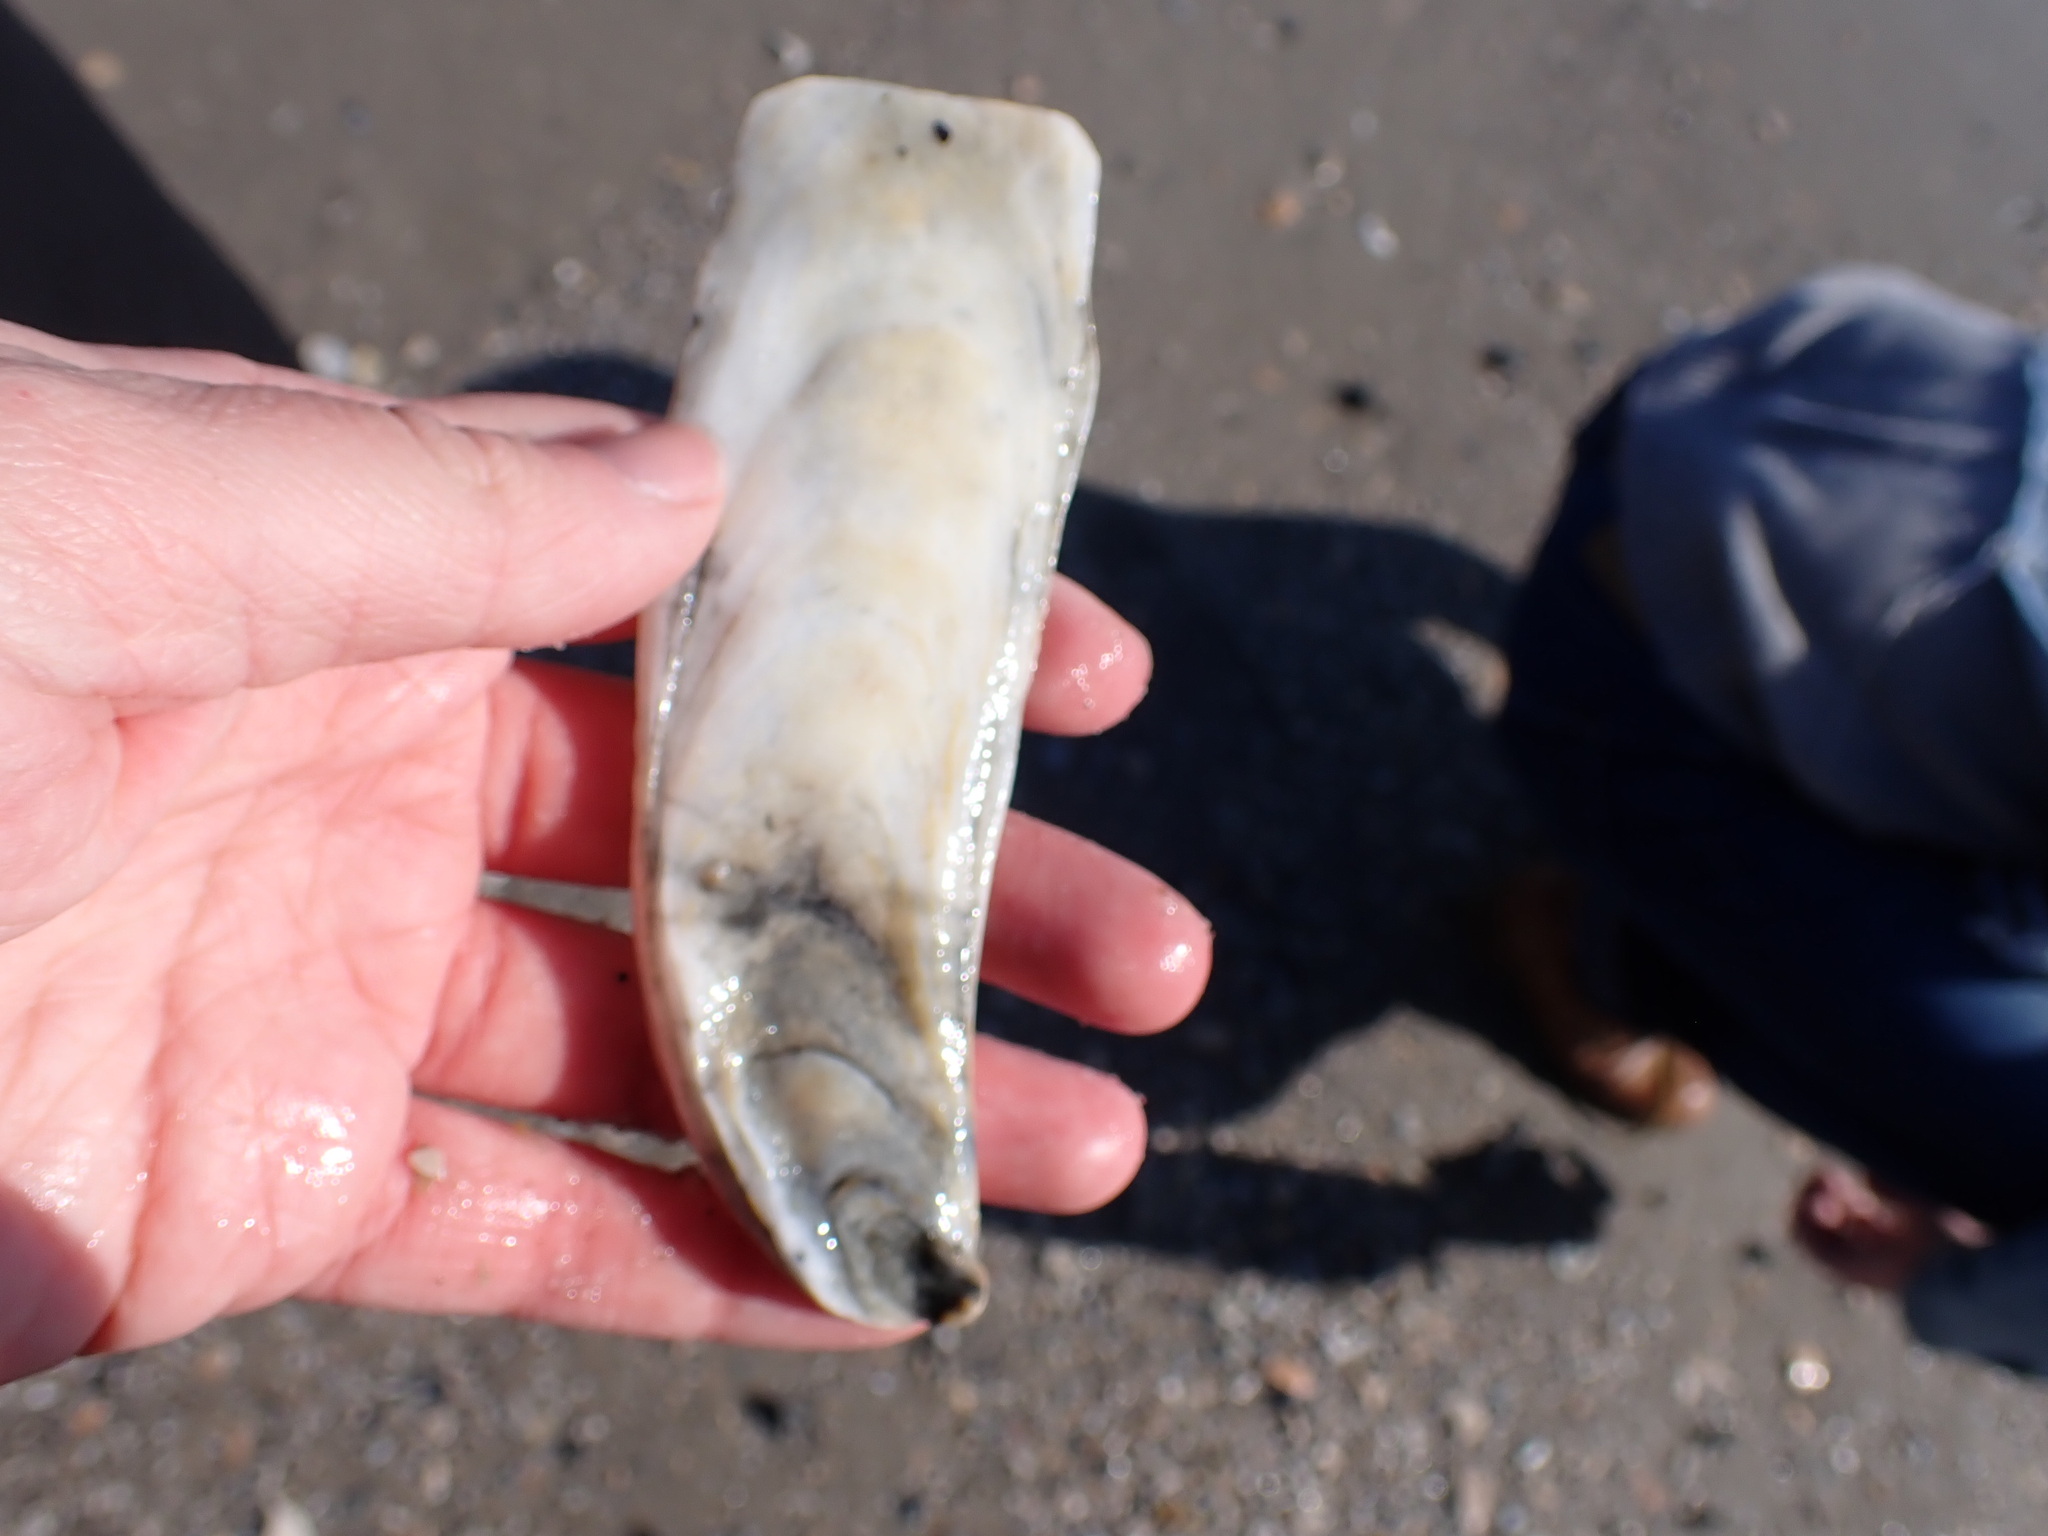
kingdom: Animalia
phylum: Mollusca
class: Bivalvia
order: Ostreida
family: Ostreidae
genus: Crassostrea
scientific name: Crassostrea virginica
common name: American oyster
